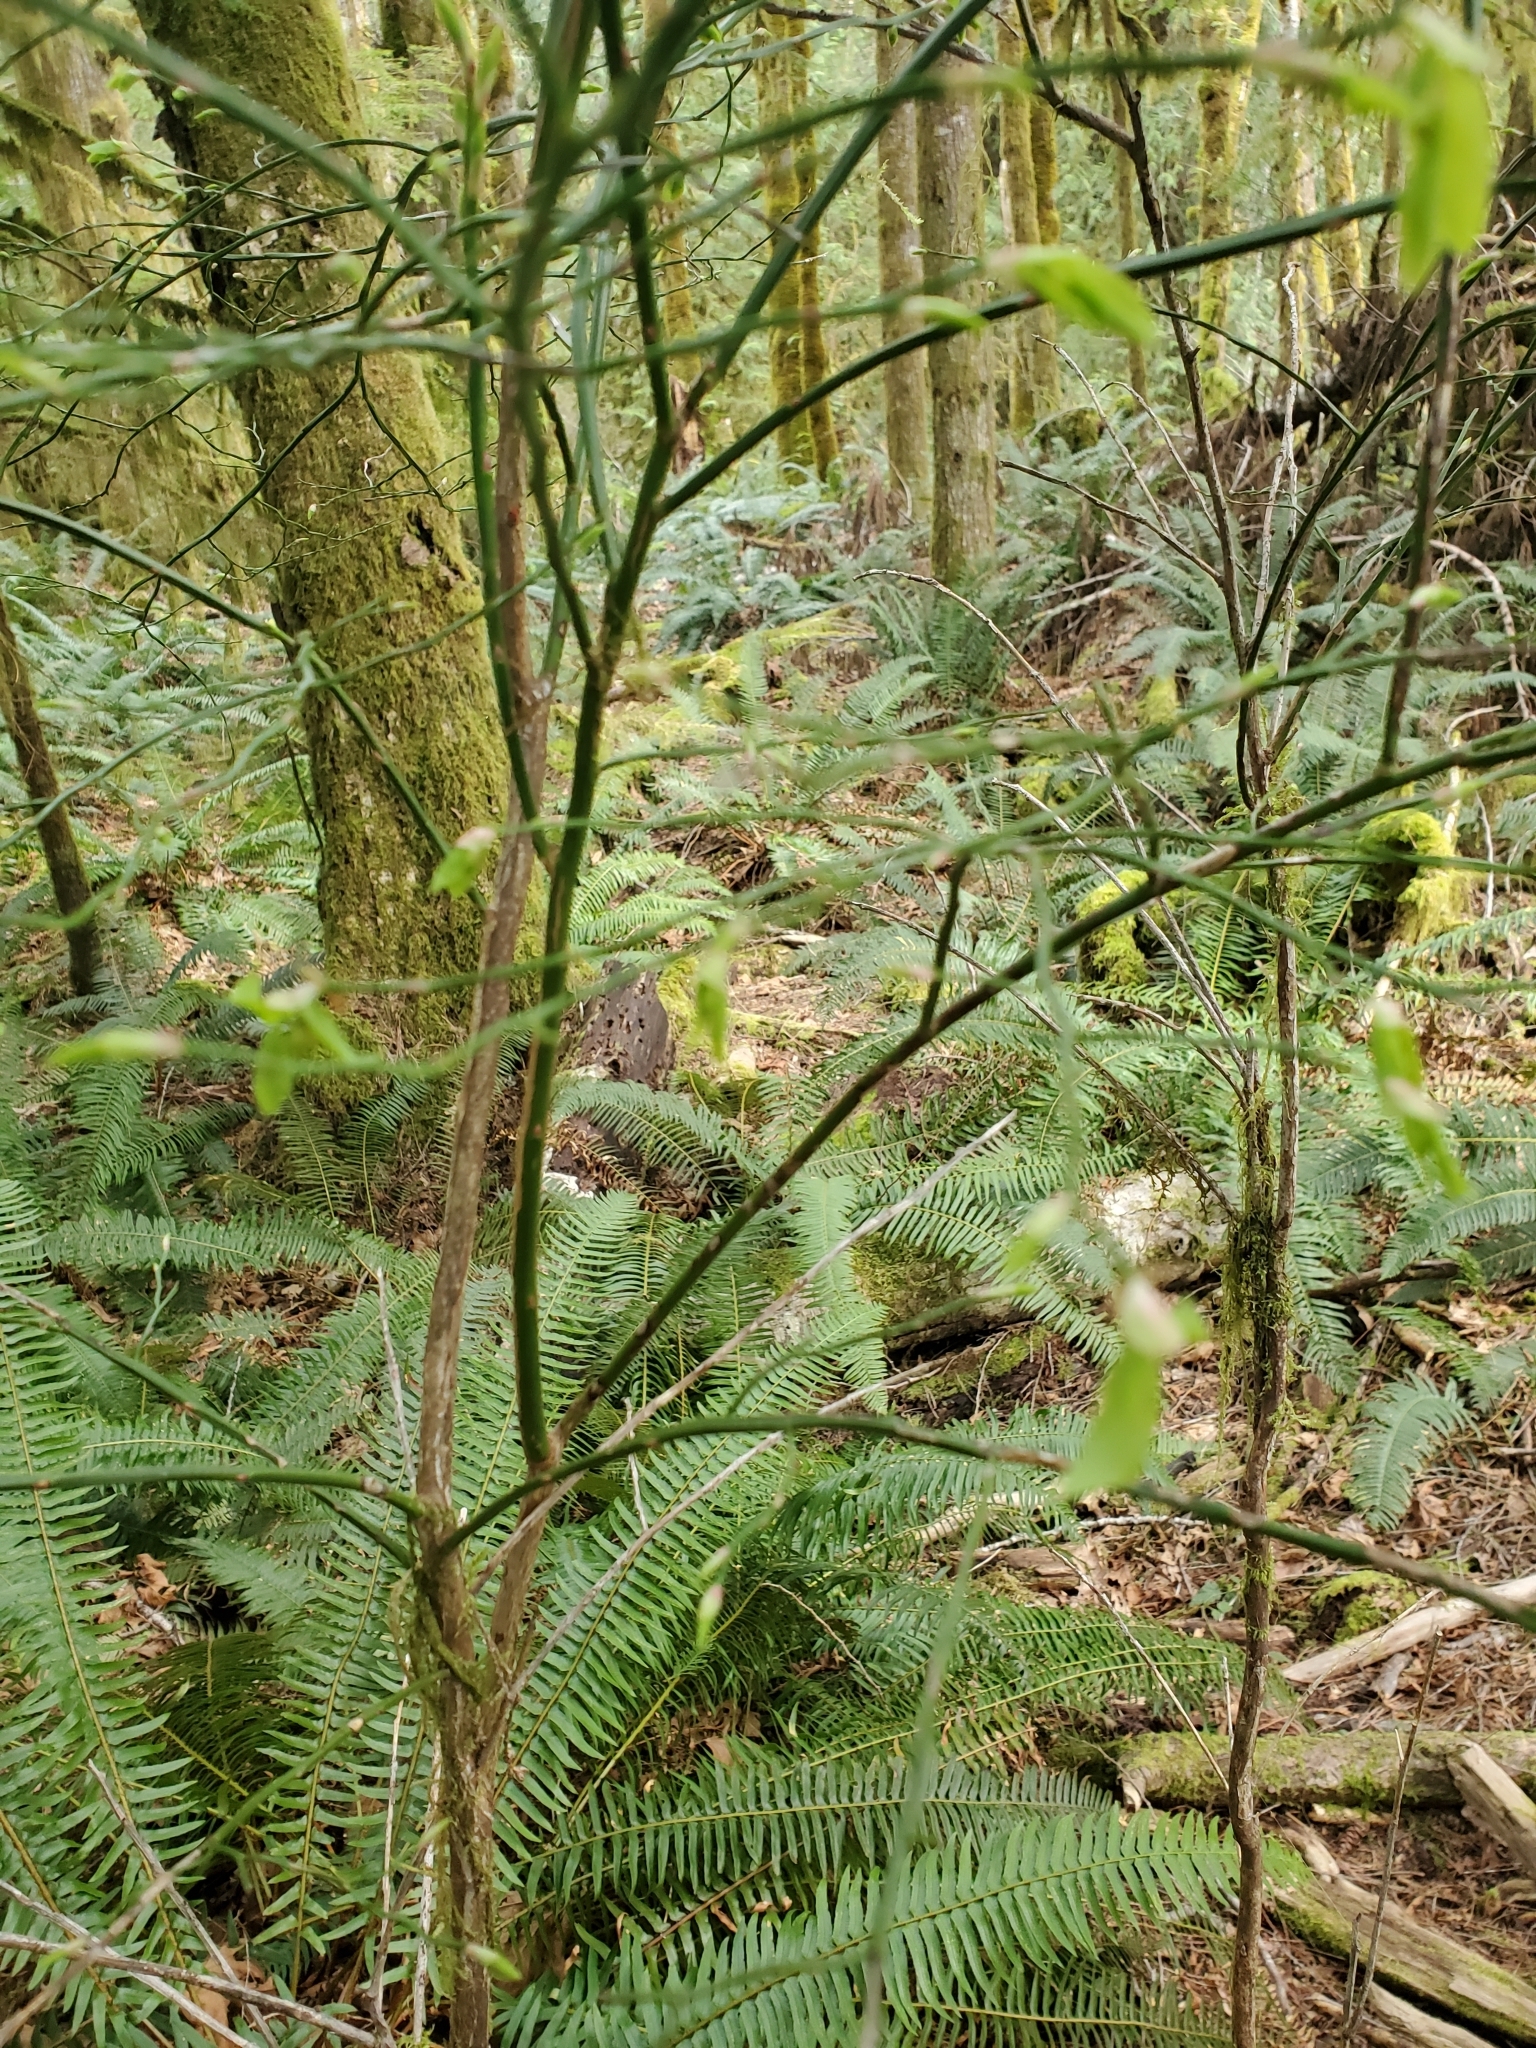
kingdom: Plantae
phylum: Tracheophyta
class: Magnoliopsida
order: Ericales
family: Ericaceae
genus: Vaccinium
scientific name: Vaccinium parvifolium
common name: Red-huckleberry
